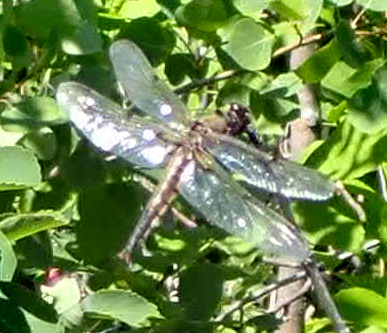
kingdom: Animalia
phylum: Arthropoda
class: Insecta
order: Odonata
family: Libellulidae
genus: Libellula
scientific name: Libellula quadrimaculata
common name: Four-spotted chaser
